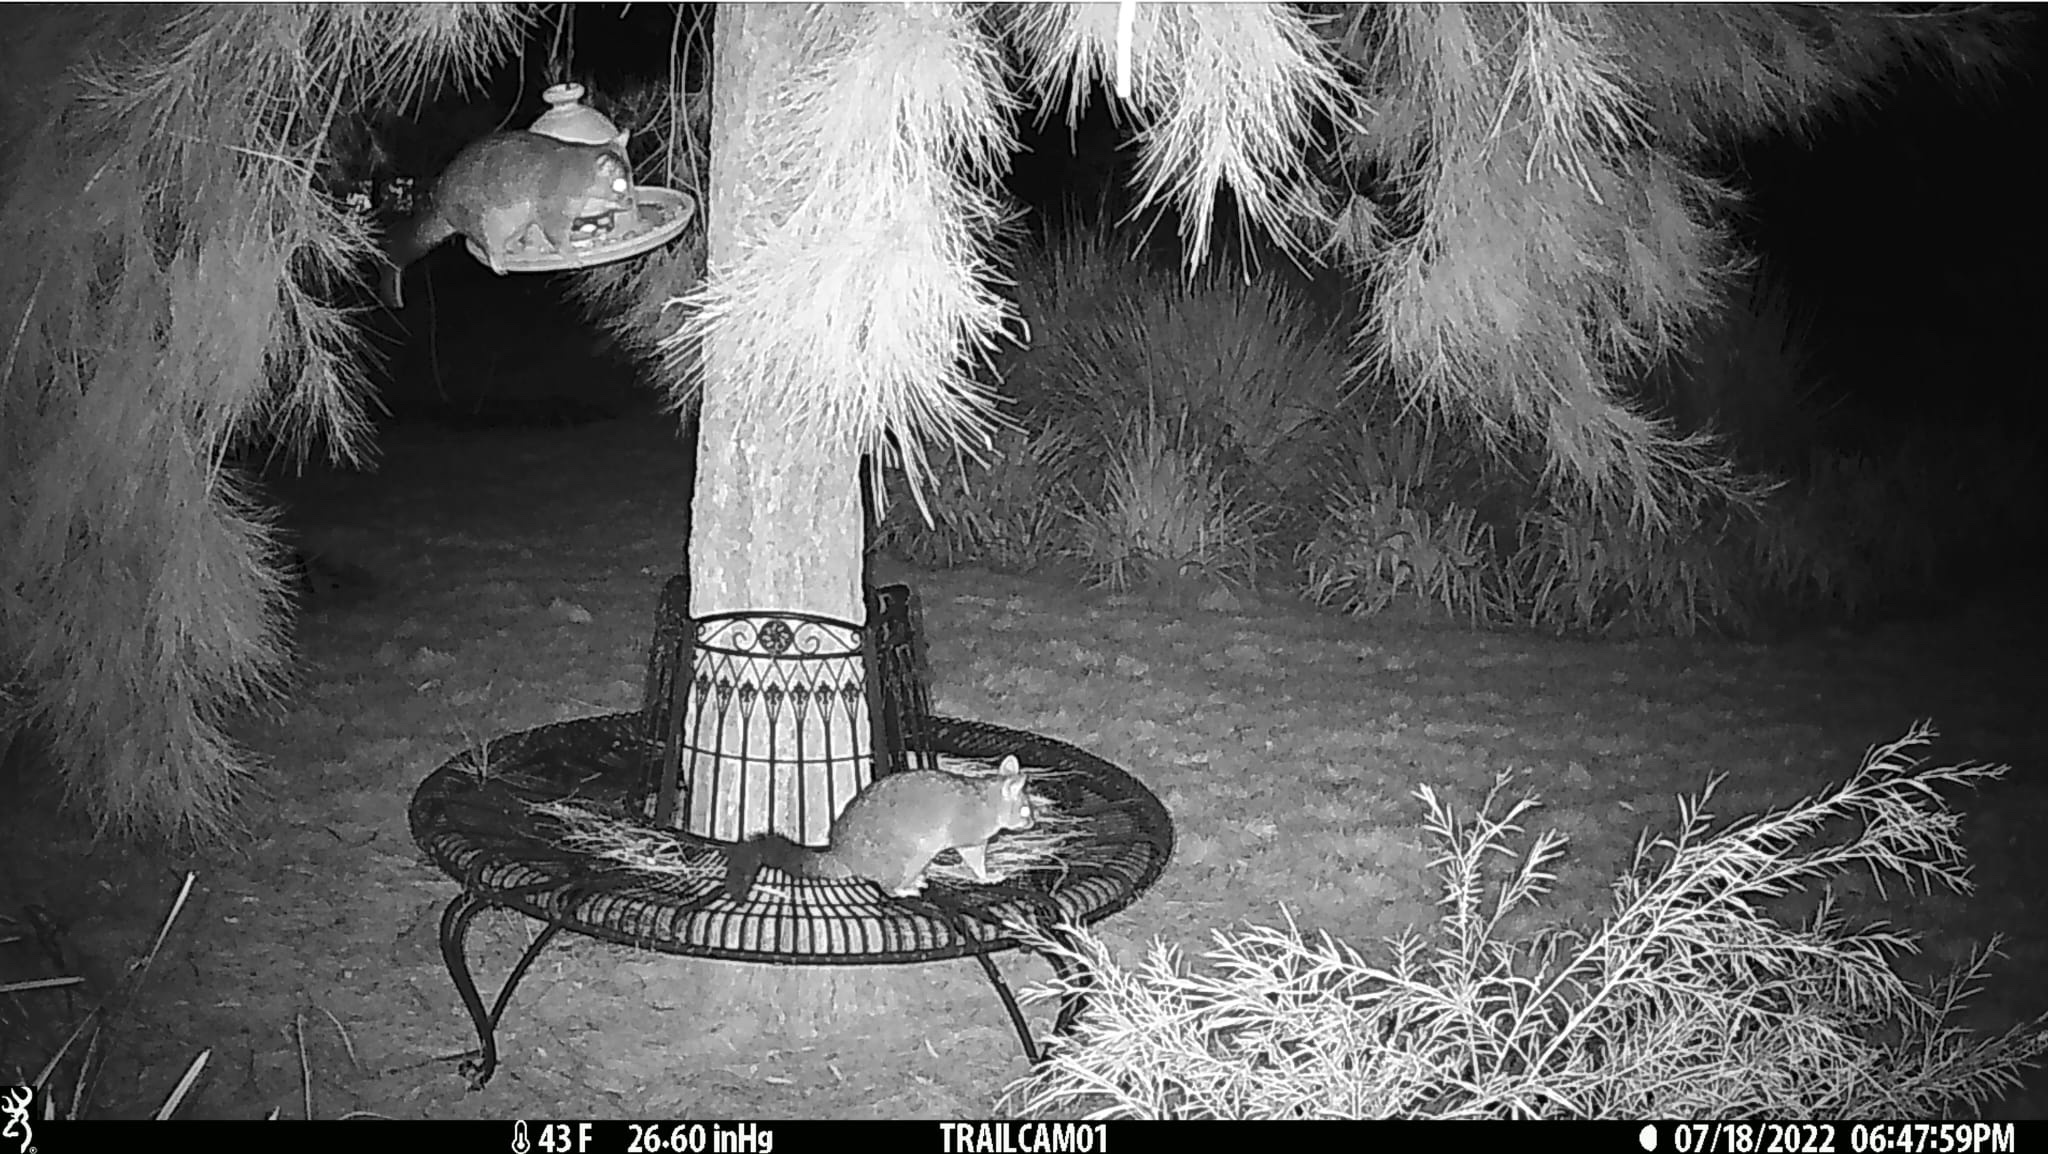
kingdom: Animalia
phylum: Chordata
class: Mammalia
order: Diprotodontia
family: Phalangeridae
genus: Trichosurus
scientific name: Trichosurus vulpecula
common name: Common brushtail
